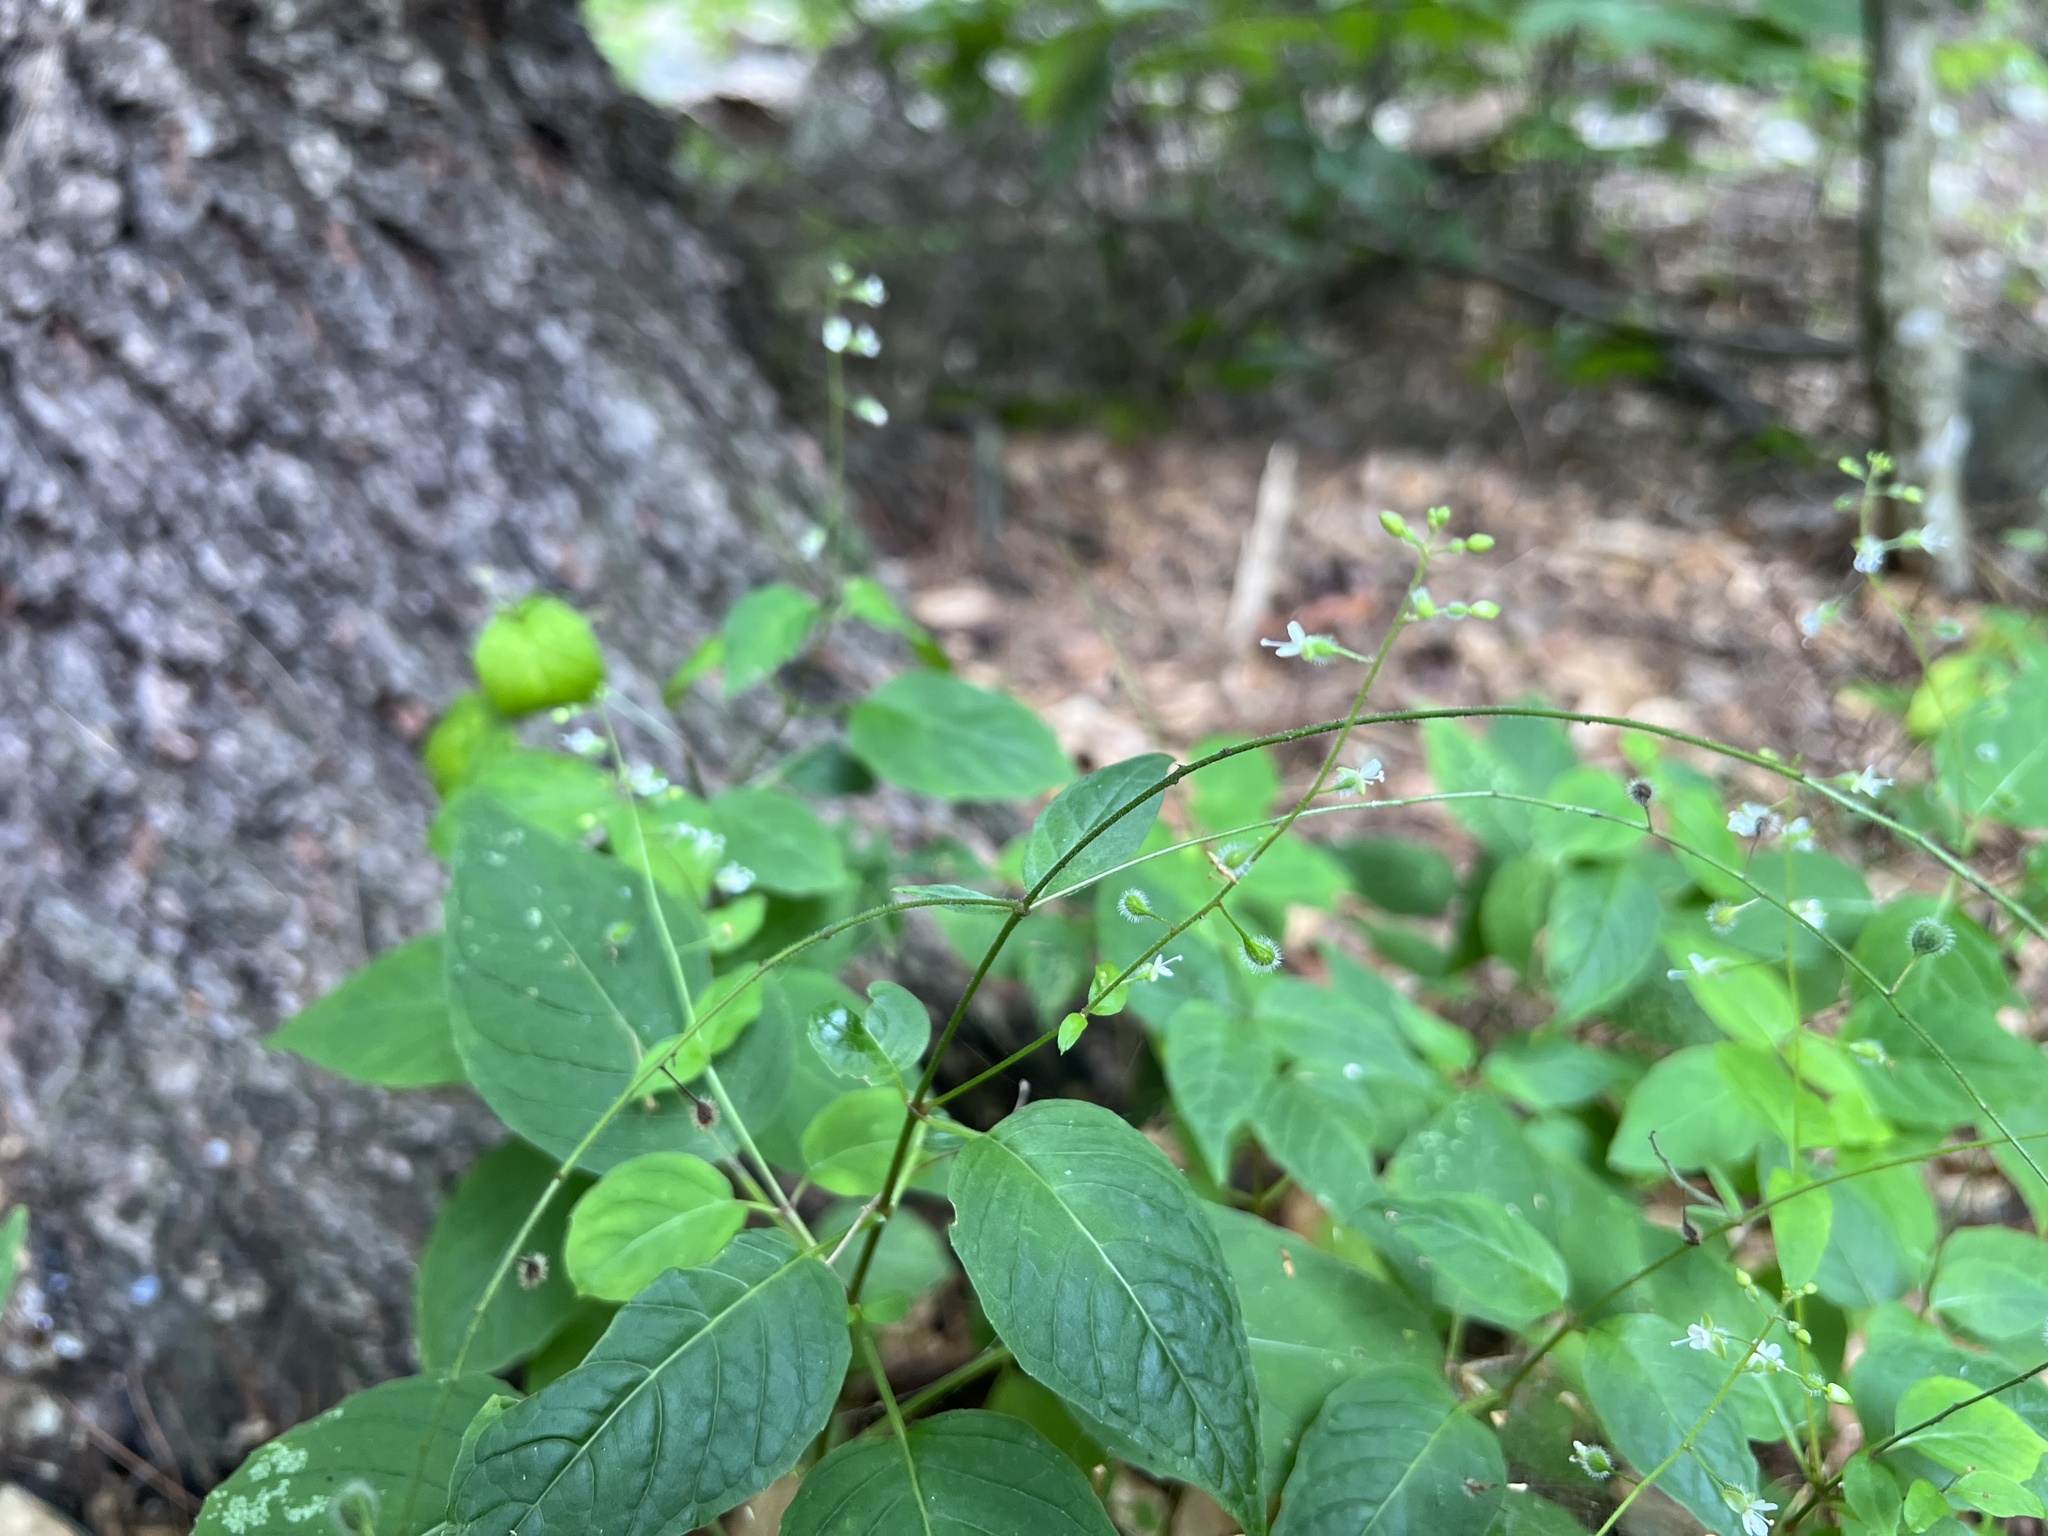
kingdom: Plantae
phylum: Tracheophyta
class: Magnoliopsida
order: Myrtales
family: Onagraceae
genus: Circaea
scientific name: Circaea canadensis
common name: Broad-leaved enchanter's nightshade
